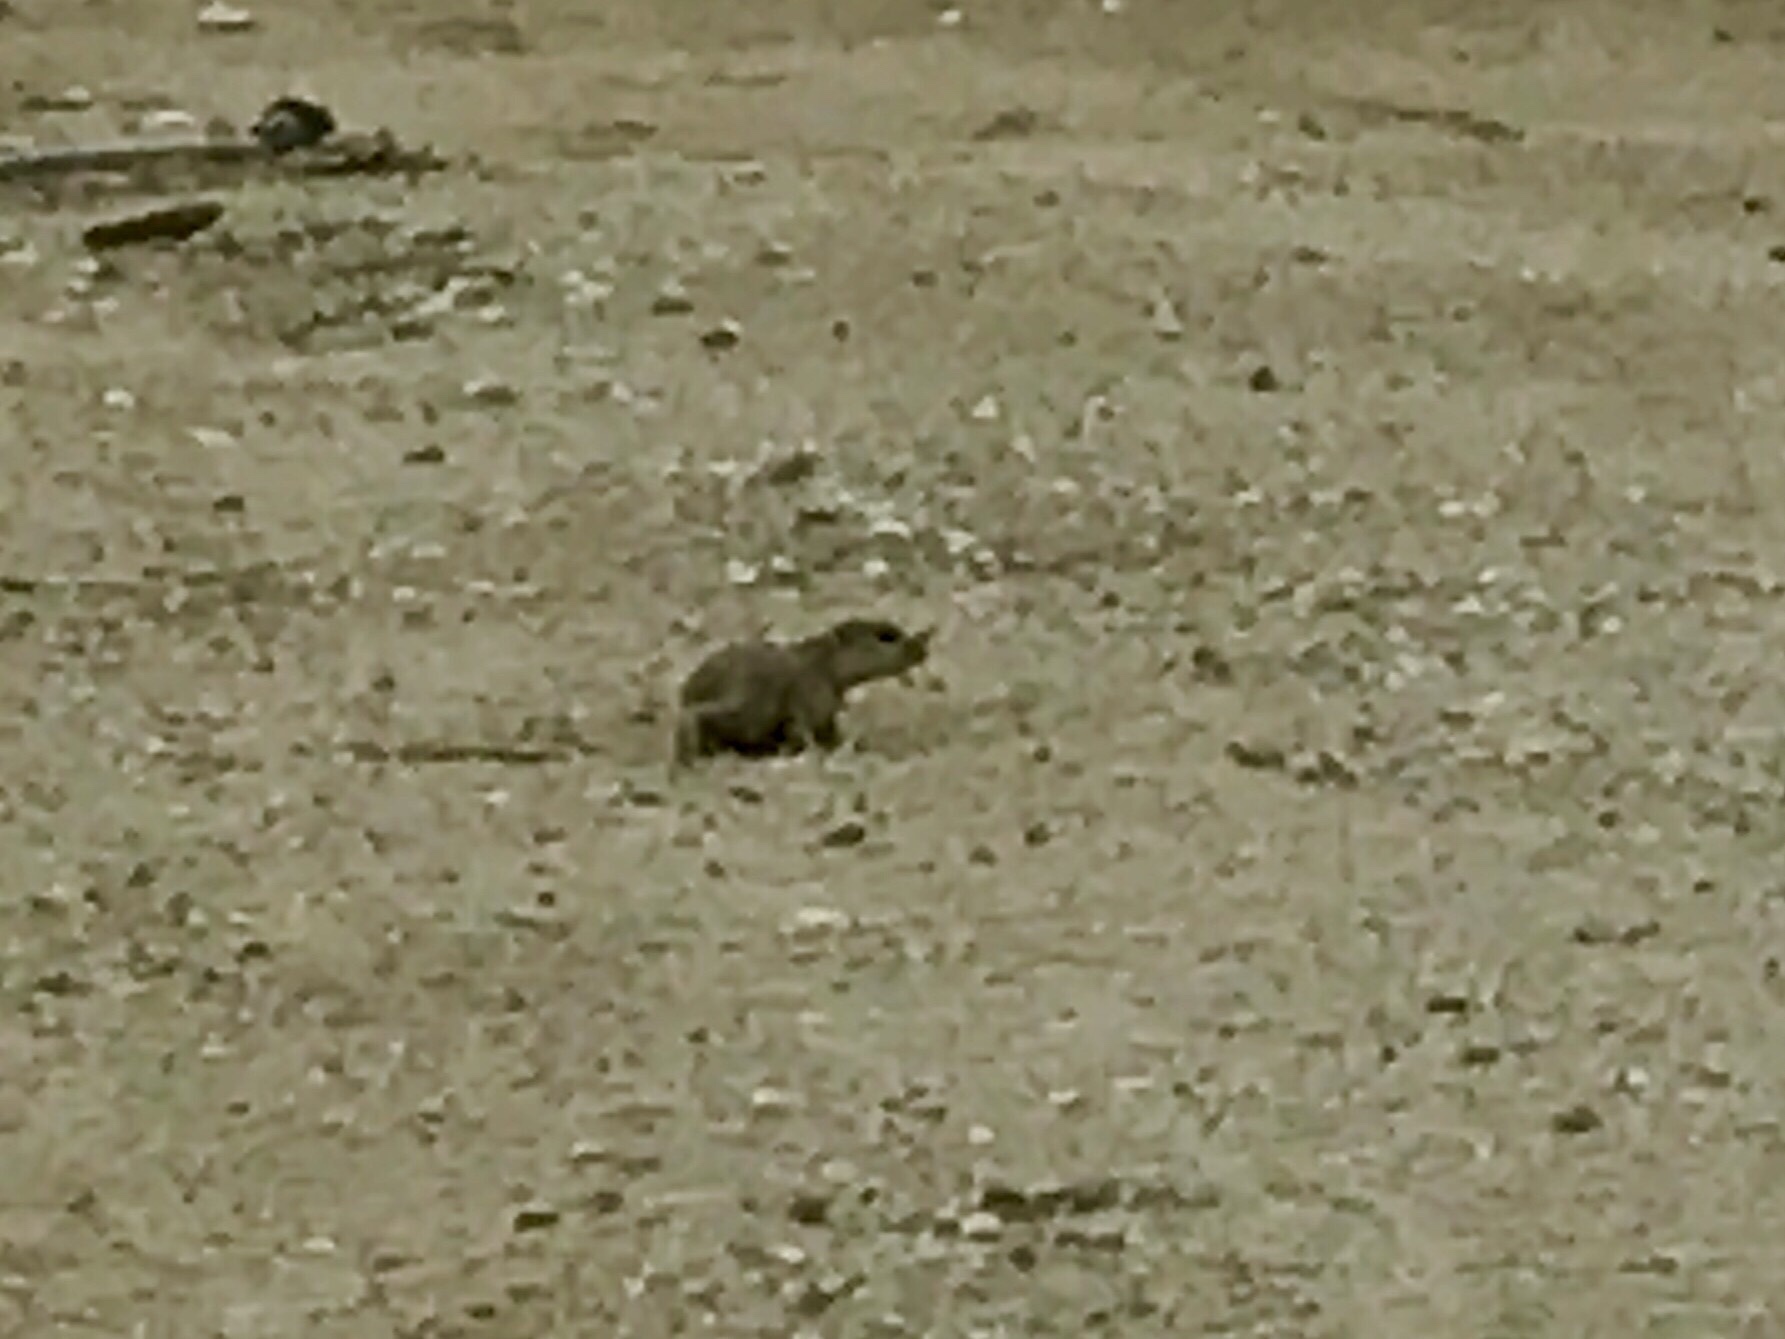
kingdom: Animalia
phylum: Chordata
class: Mammalia
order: Rodentia
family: Sciuridae
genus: Xerospermophilus
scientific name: Xerospermophilus tereticaudus
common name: Round-tailed ground squirrel
